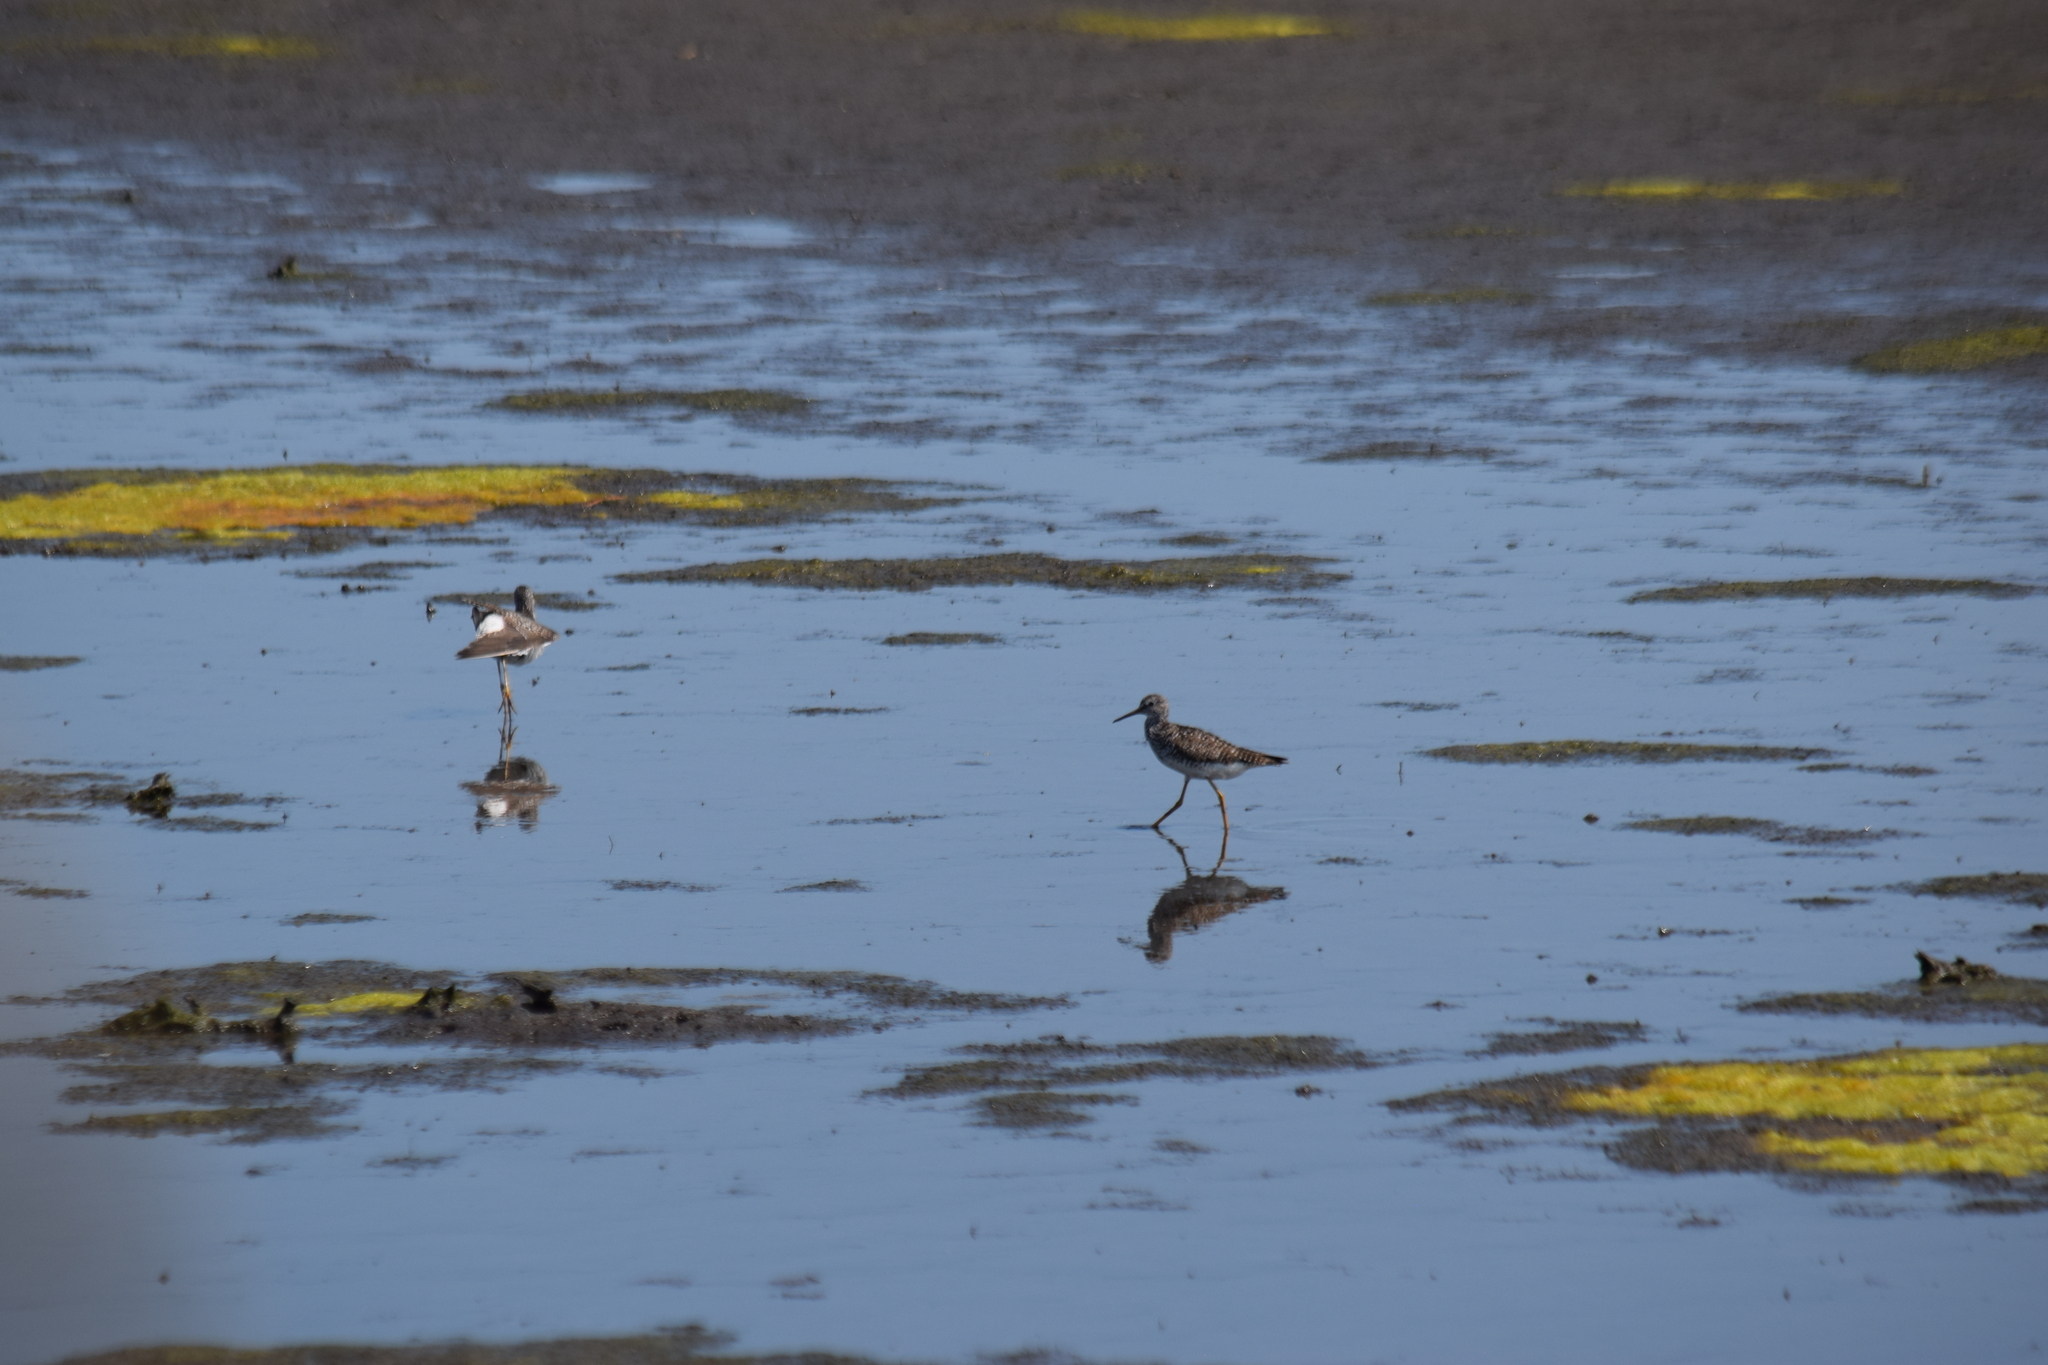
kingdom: Animalia
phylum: Chordata
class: Aves
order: Charadriiformes
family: Scolopacidae
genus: Tringa
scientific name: Tringa flavipes
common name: Lesser yellowlegs
